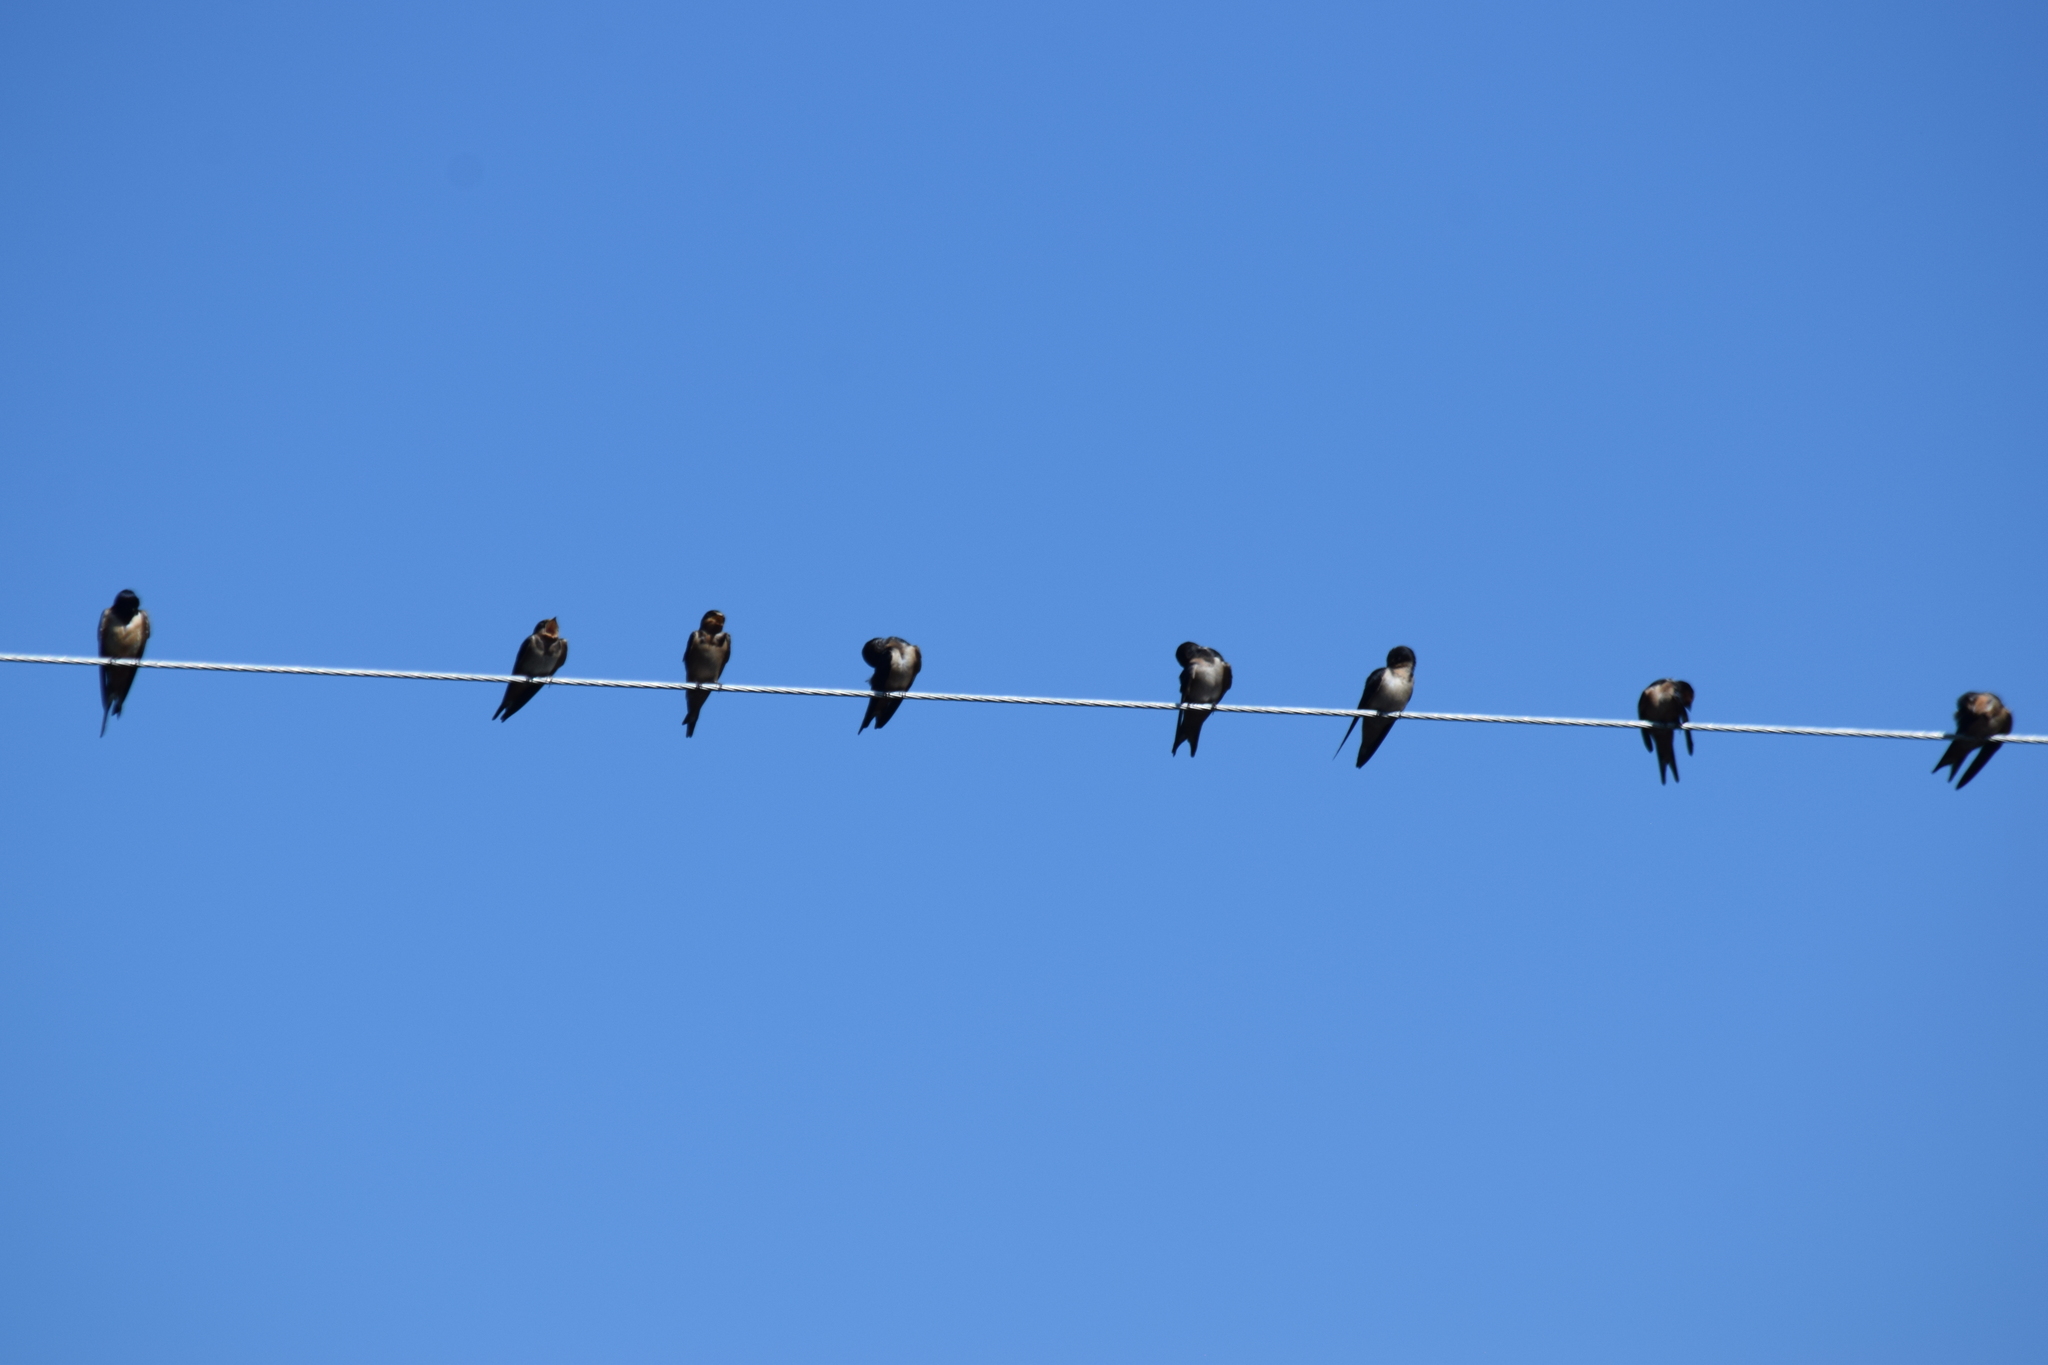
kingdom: Animalia
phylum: Chordata
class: Aves
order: Passeriformes
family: Hirundinidae
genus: Hirundo
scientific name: Hirundo rustica
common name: Barn swallow
